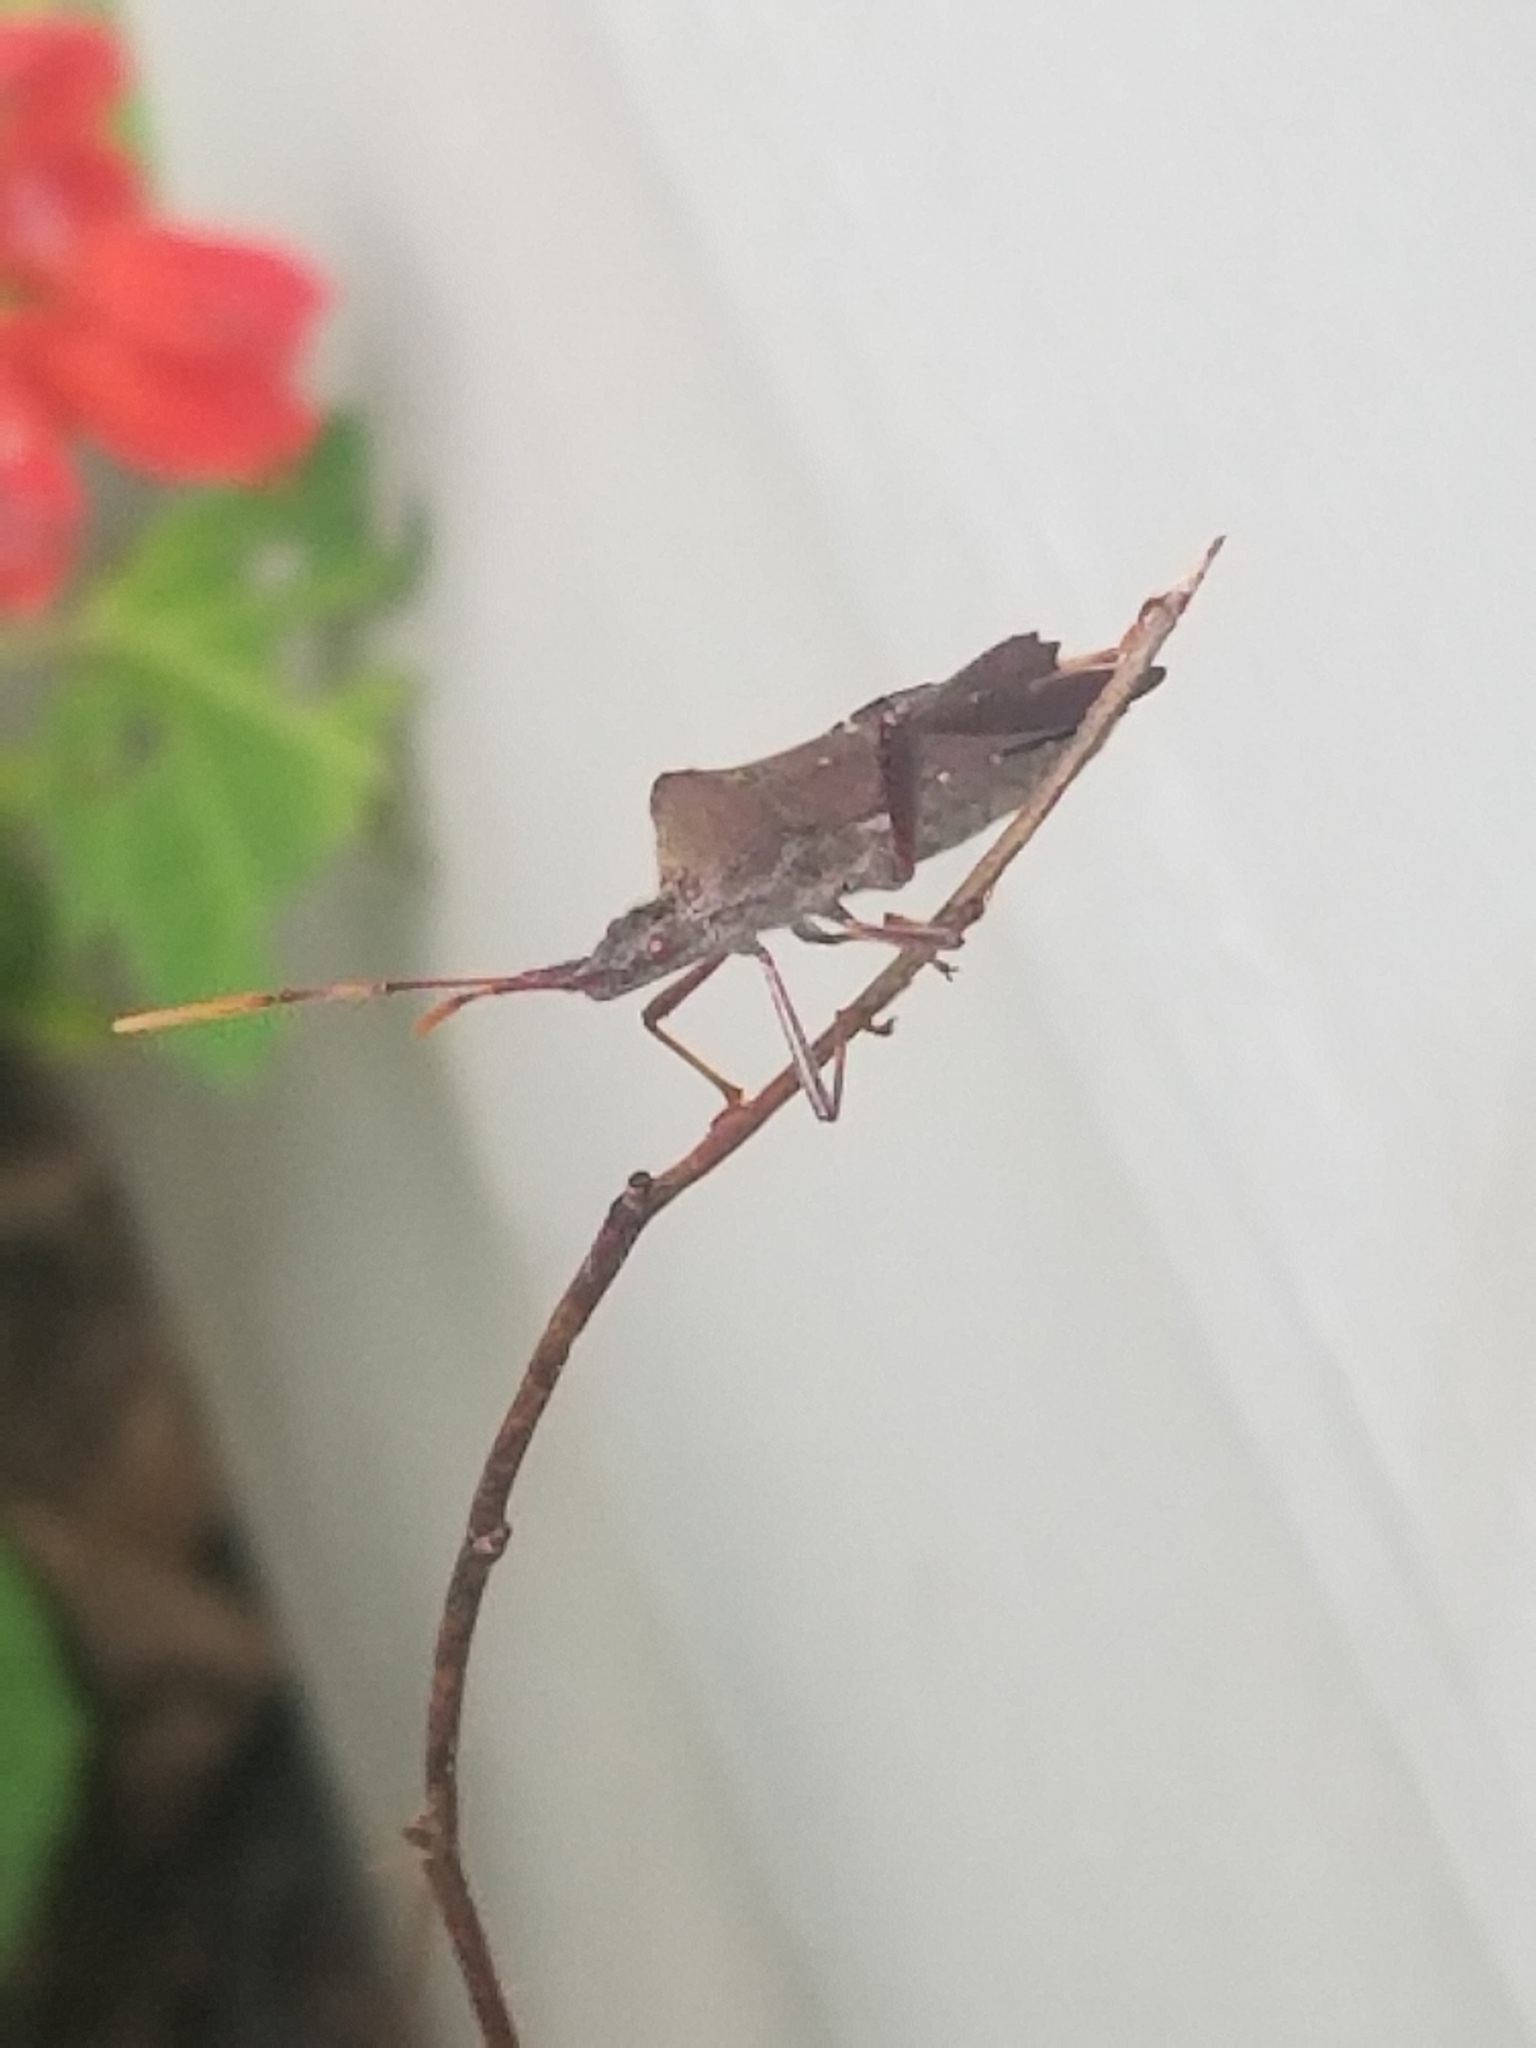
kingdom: Animalia
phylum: Arthropoda
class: Insecta
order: Hemiptera
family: Coreidae
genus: Leptoglossus
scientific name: Leptoglossus oppositus
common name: Northern leaf-footed bug
